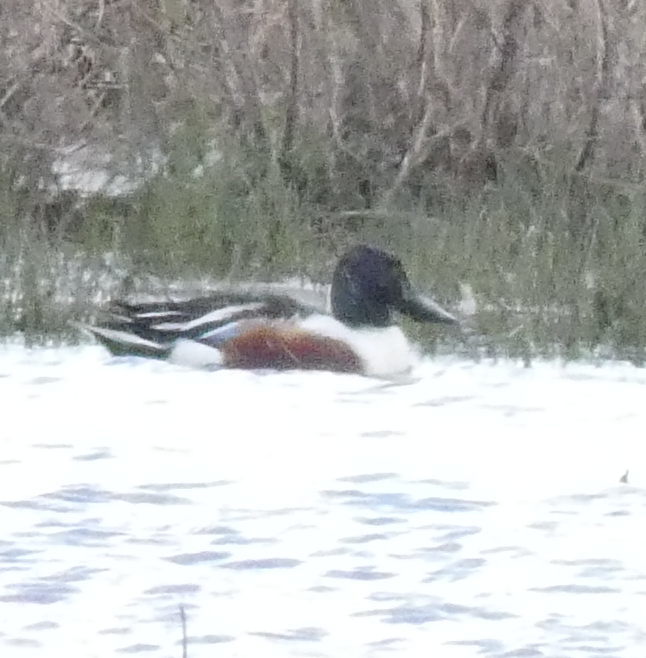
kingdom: Animalia
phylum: Chordata
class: Aves
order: Anseriformes
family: Anatidae
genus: Spatula
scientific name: Spatula clypeata
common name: Northern shoveler
